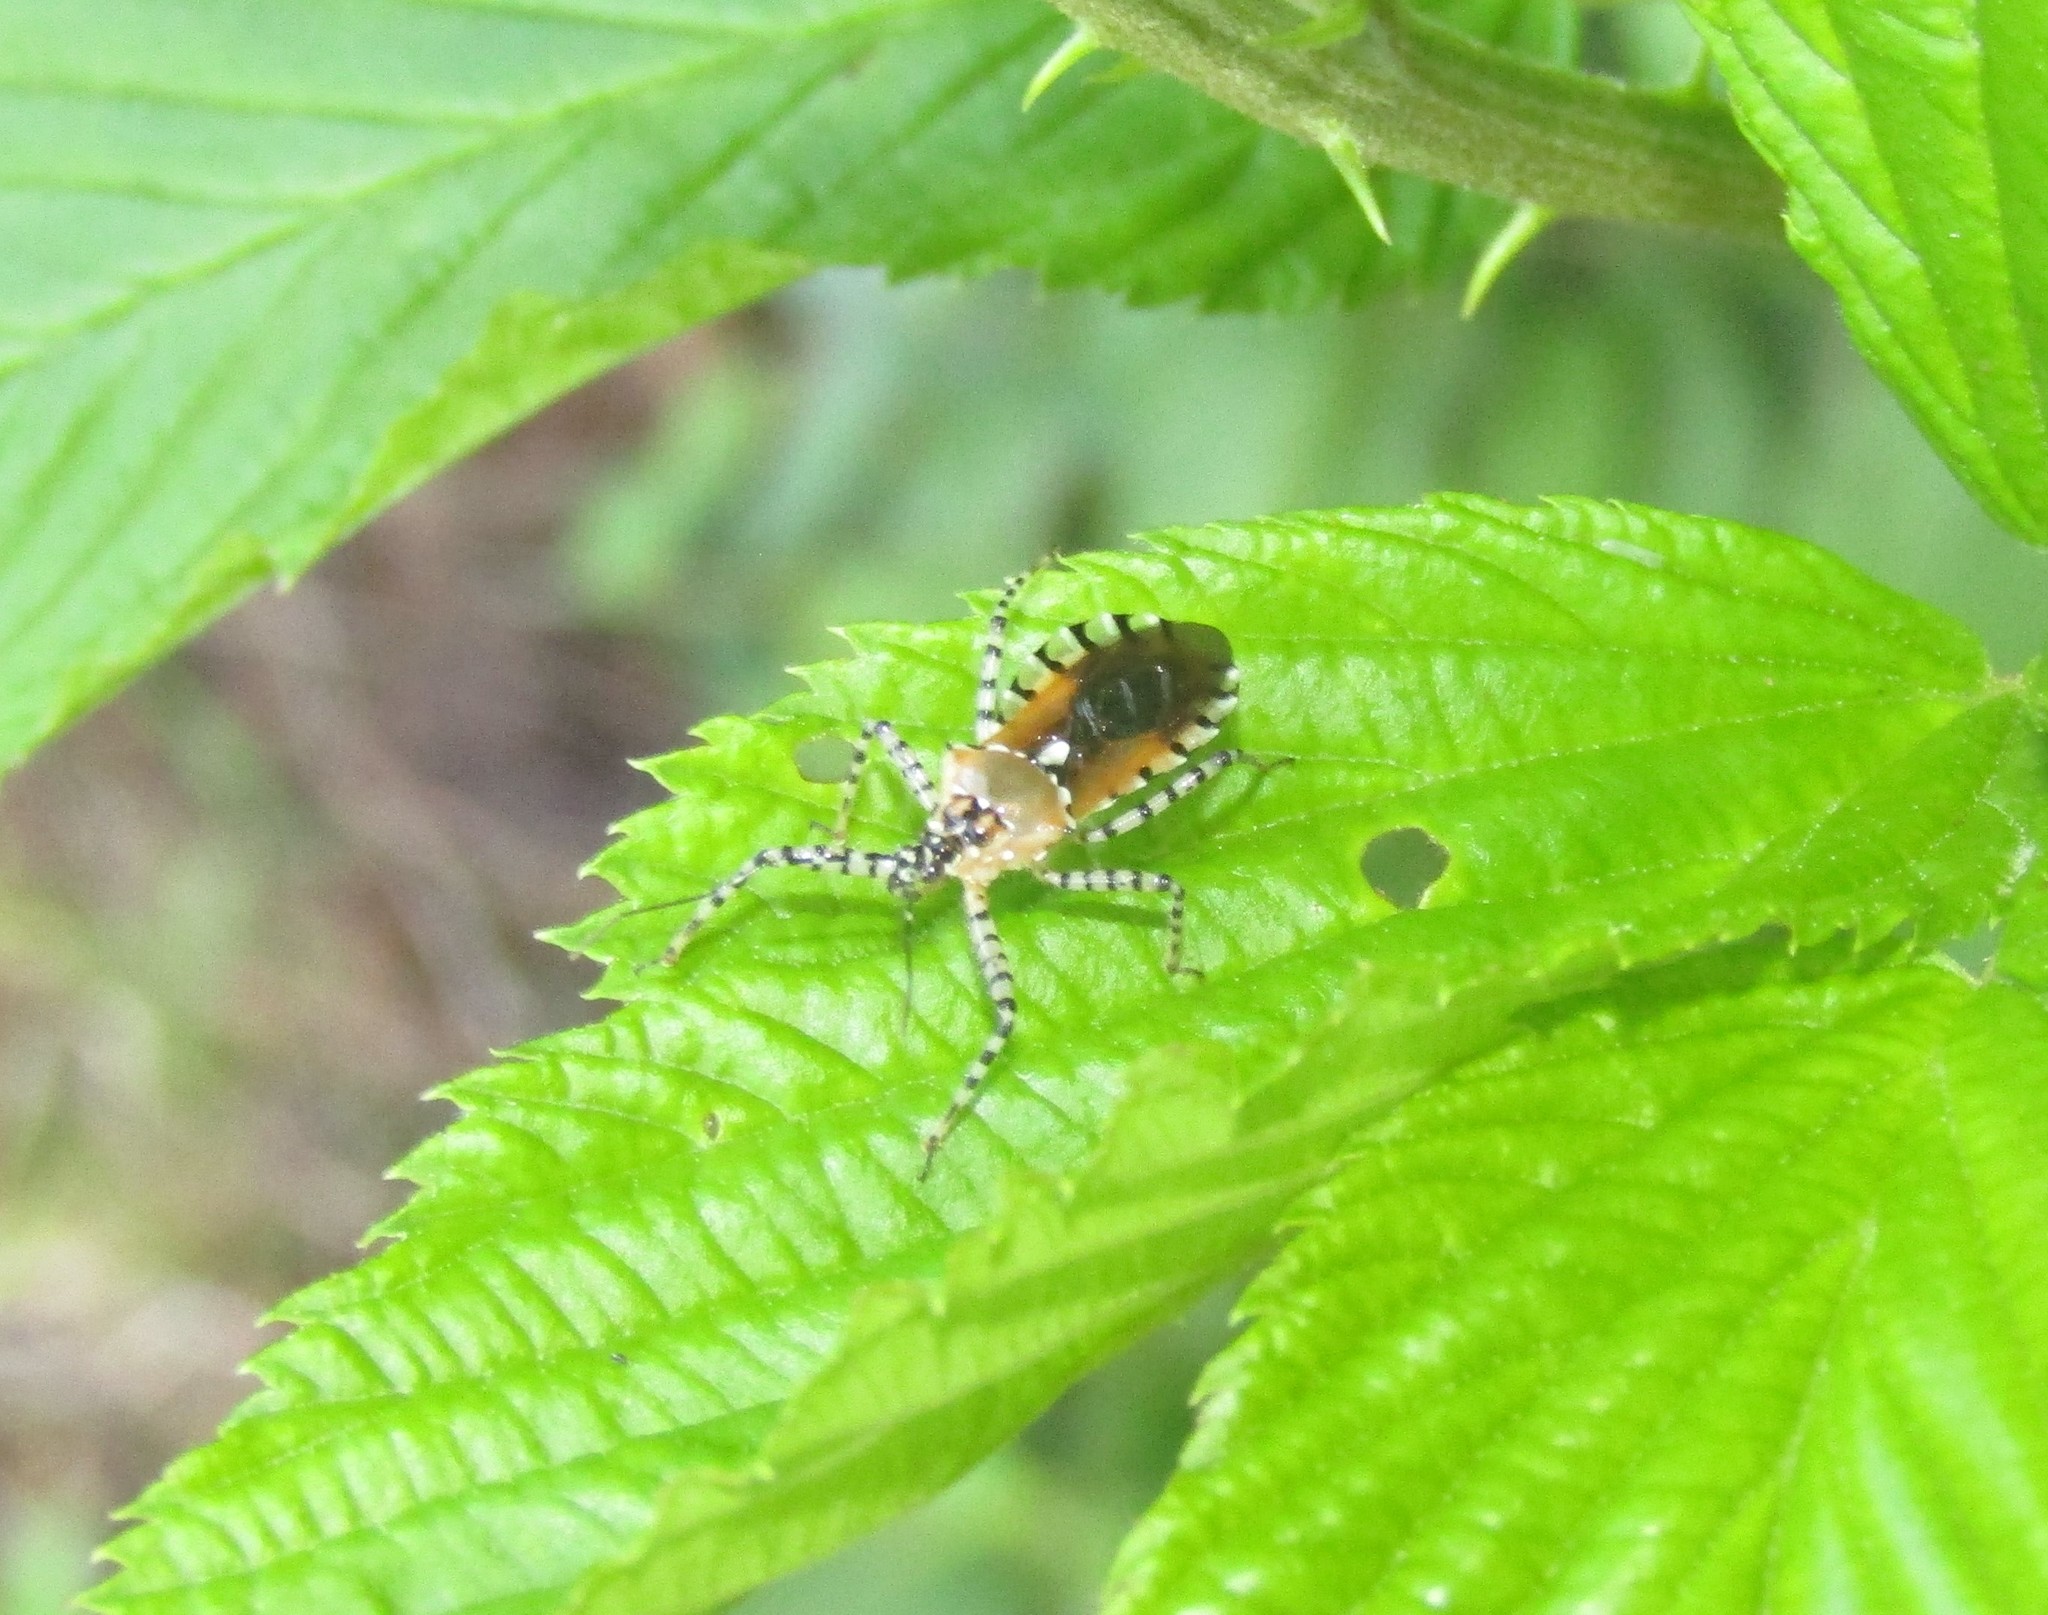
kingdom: Animalia
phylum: Arthropoda
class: Insecta
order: Hemiptera
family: Reduviidae
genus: Pselliopus
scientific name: Pselliopus cinctus
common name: Ringed assassin bug
